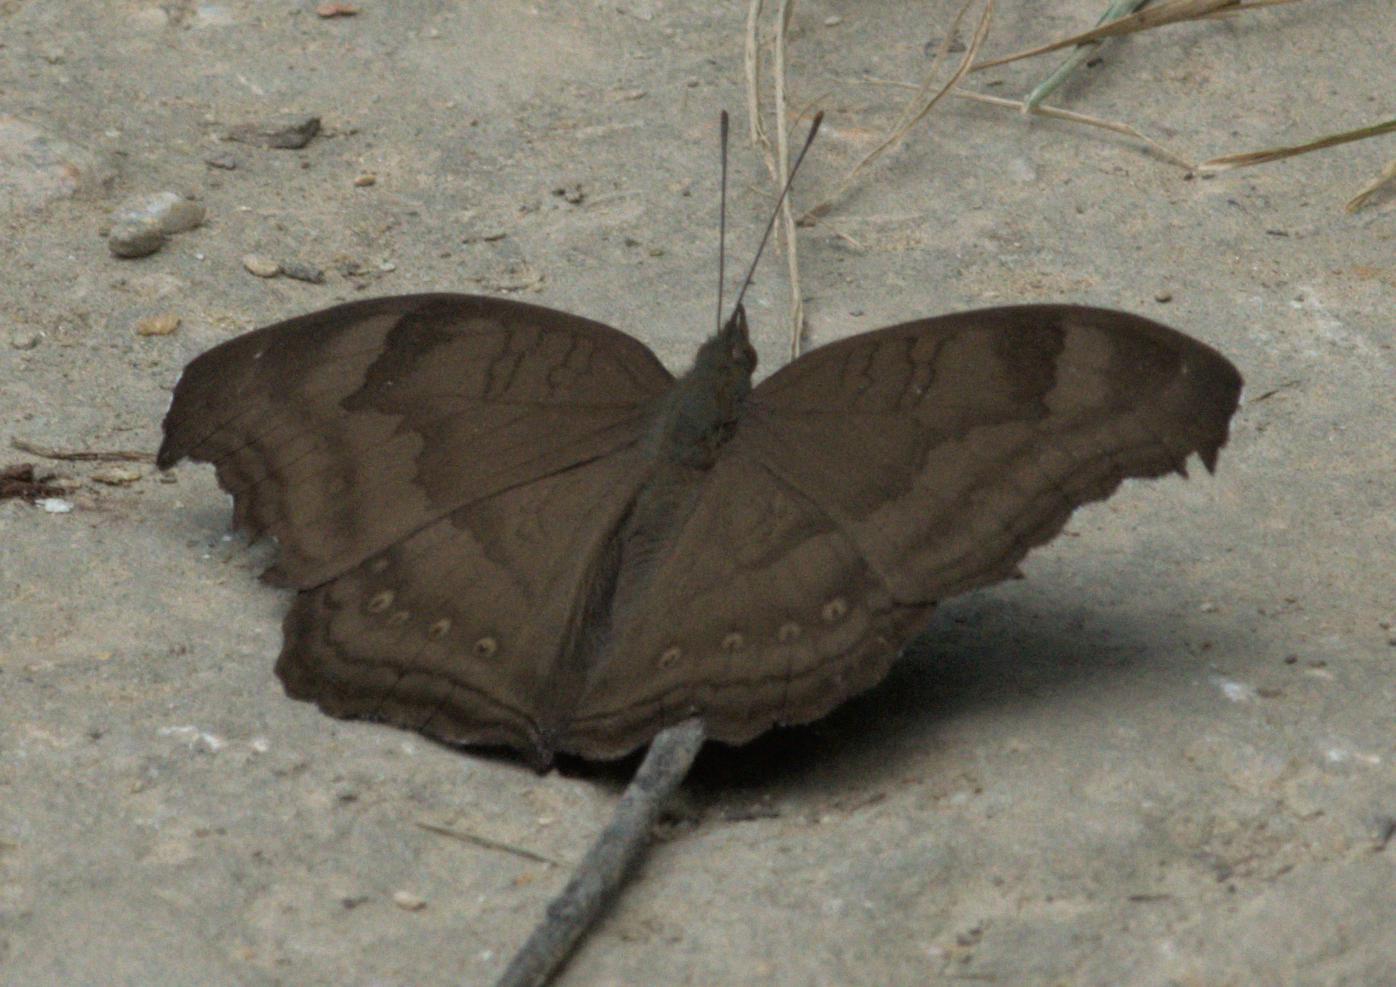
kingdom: Animalia
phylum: Arthropoda
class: Insecta
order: Lepidoptera
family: Nymphalidae
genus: Junonia
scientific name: Junonia iphita
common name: Chocolate pansy
